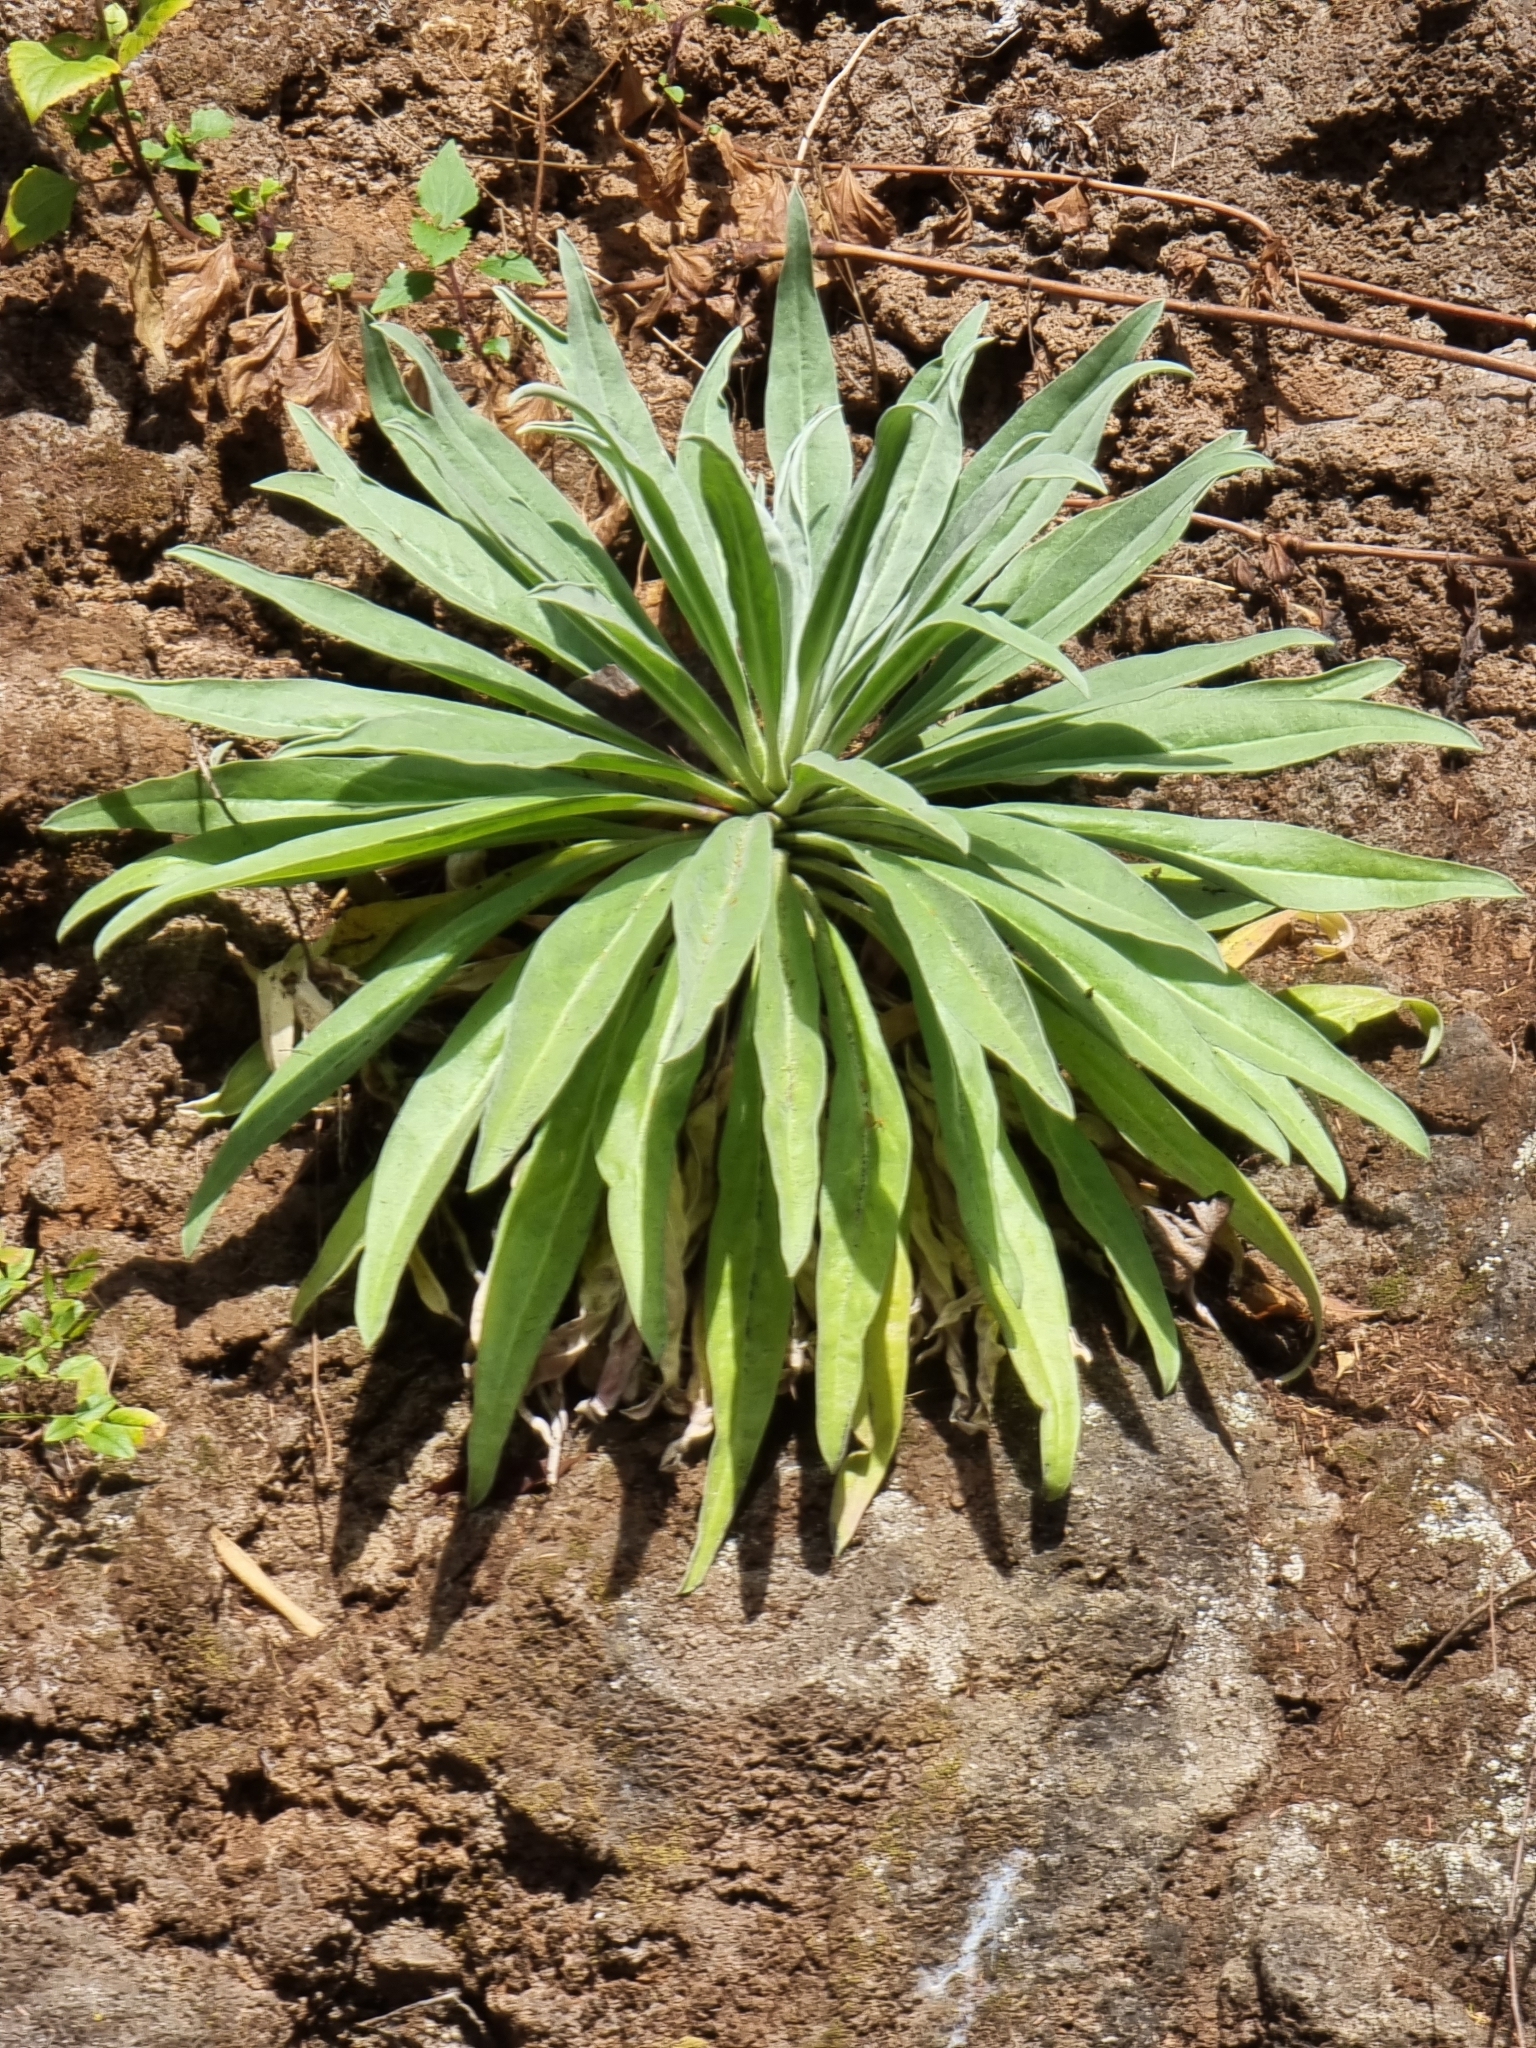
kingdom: Plantae
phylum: Tracheophyta
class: Magnoliopsida
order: Brassicales
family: Brassicaceae
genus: Matthiola
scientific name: Matthiola maderensis
